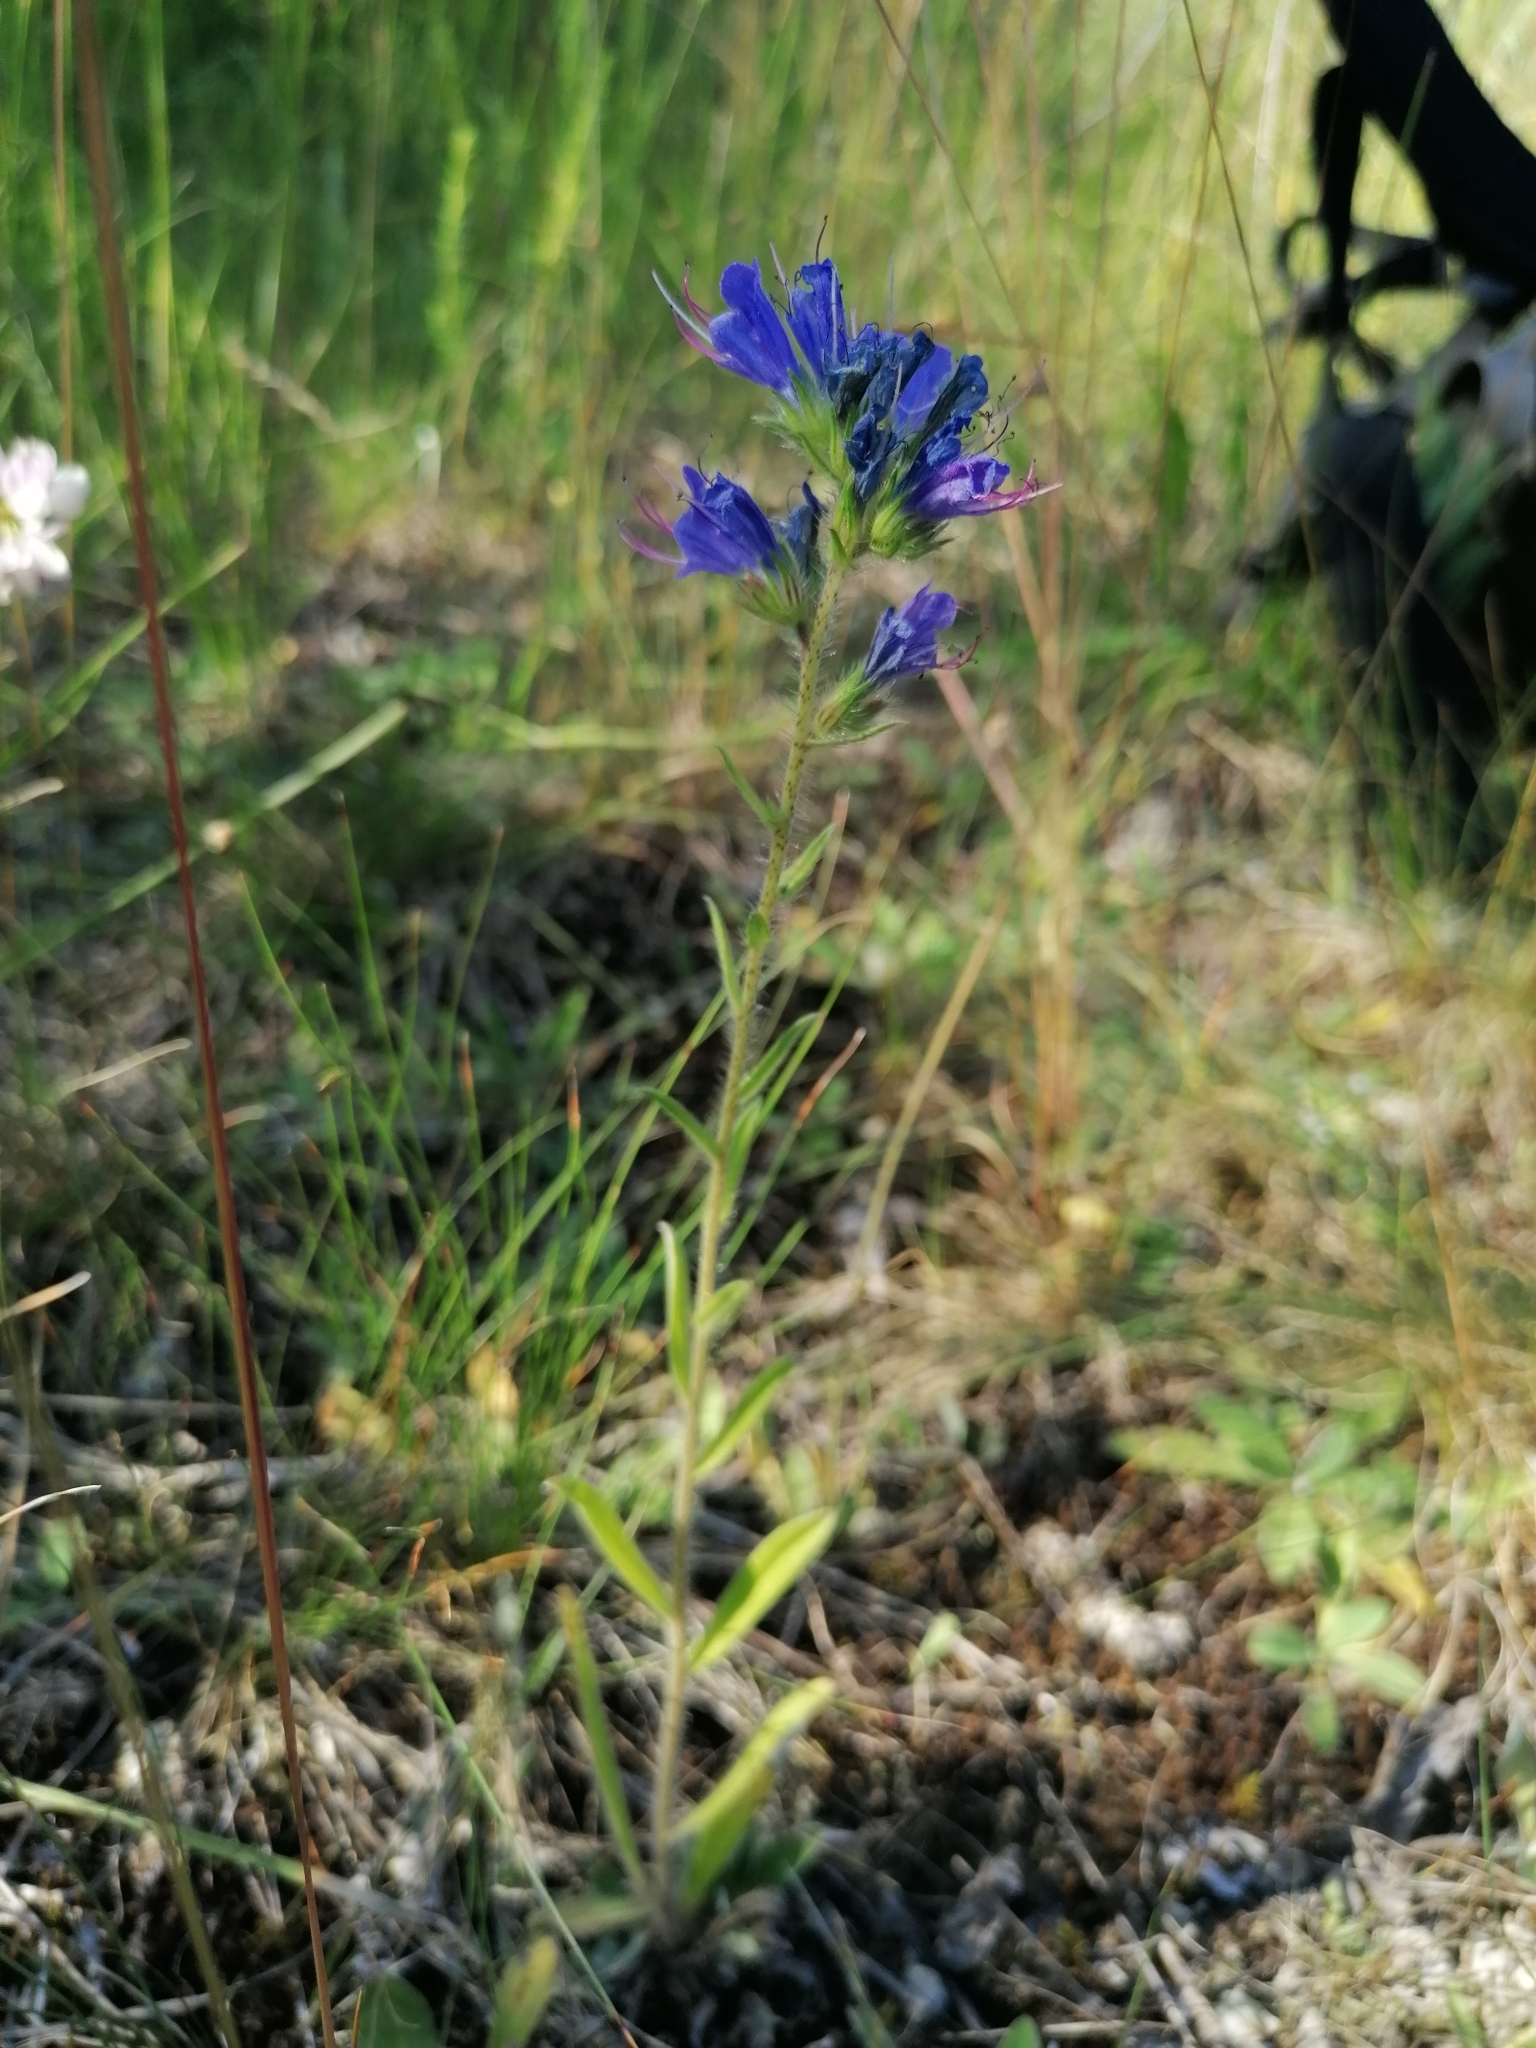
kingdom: Plantae
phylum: Tracheophyta
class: Magnoliopsida
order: Boraginales
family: Boraginaceae
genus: Echium
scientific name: Echium vulgare
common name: Common viper's bugloss
